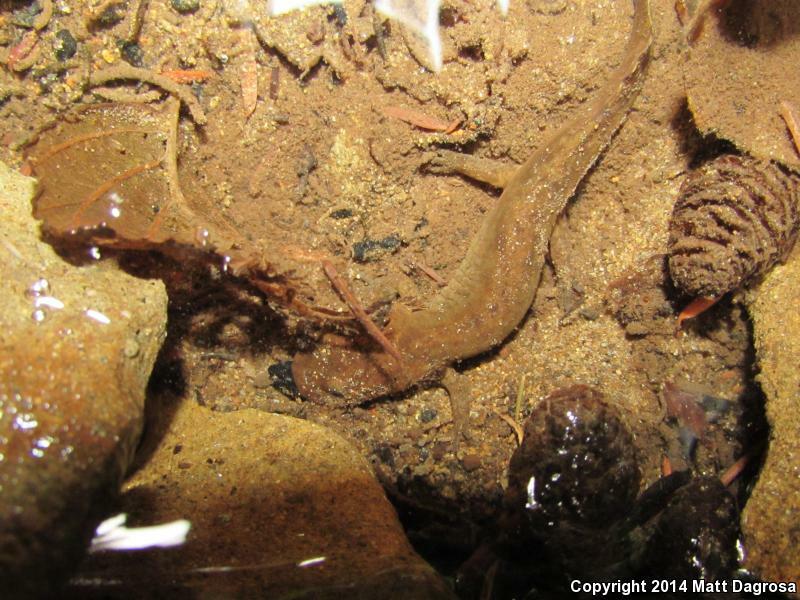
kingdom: Animalia
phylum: Chordata
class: Amphibia
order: Caudata
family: Ambystomatidae
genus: Dicamptodon
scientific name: Dicamptodon tenebrosus
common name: Coastal giant salamander
